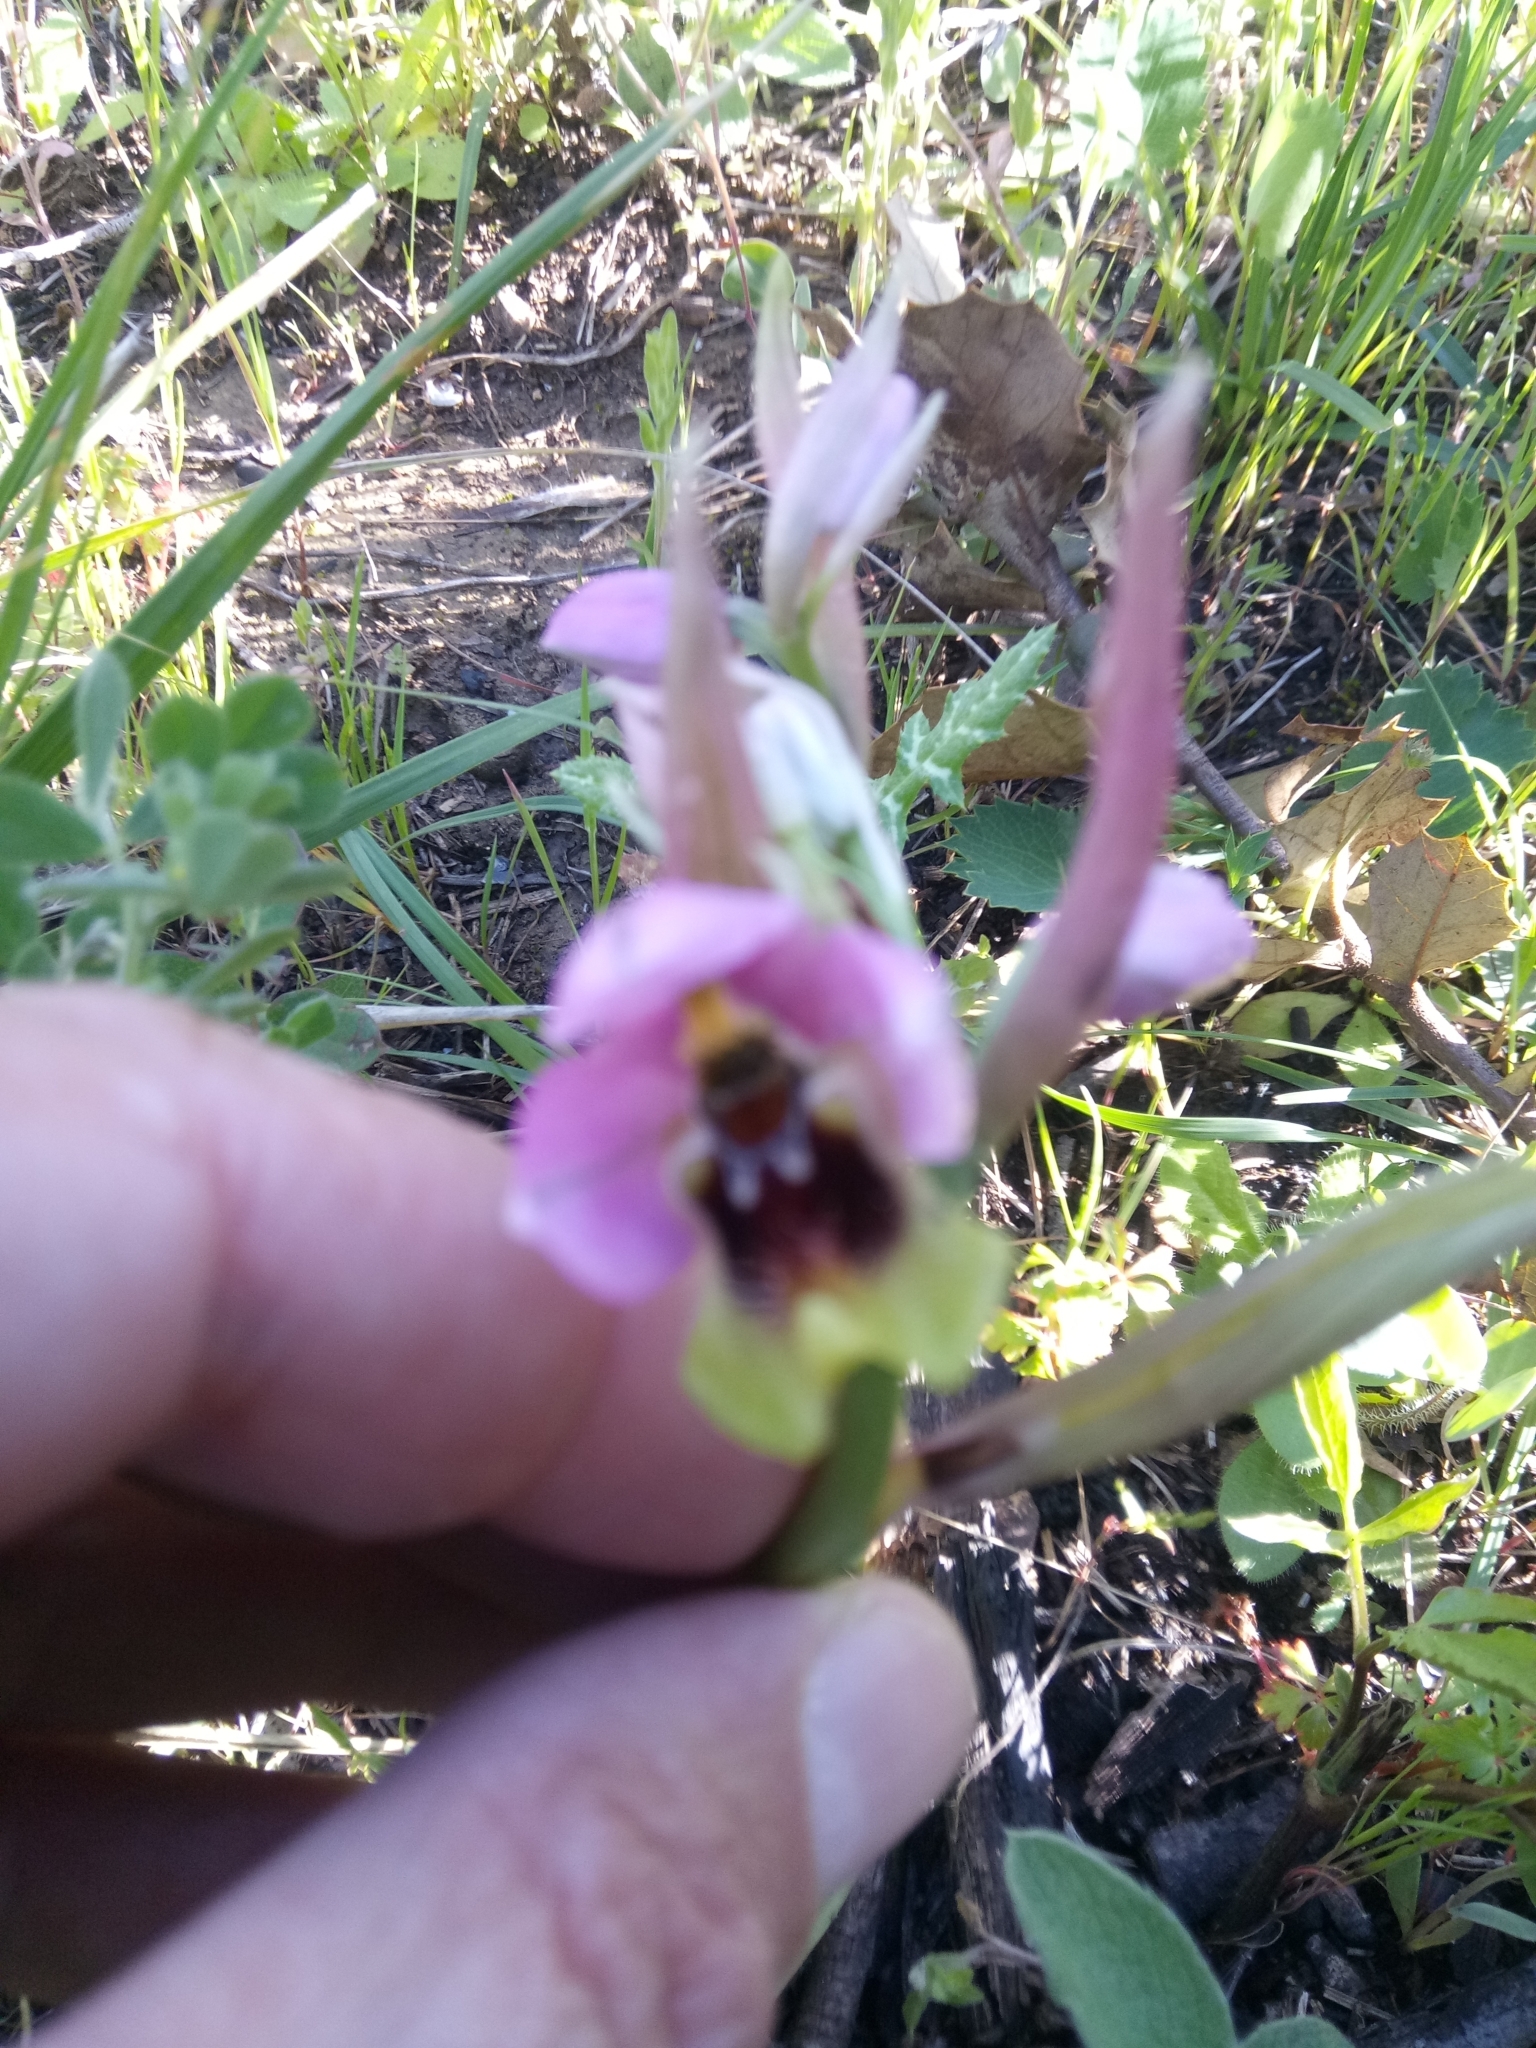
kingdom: Plantae
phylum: Tracheophyta
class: Liliopsida
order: Asparagales
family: Orchidaceae
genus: Ophrys
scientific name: Ophrys tenthredinifera
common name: Sawfly orchid
